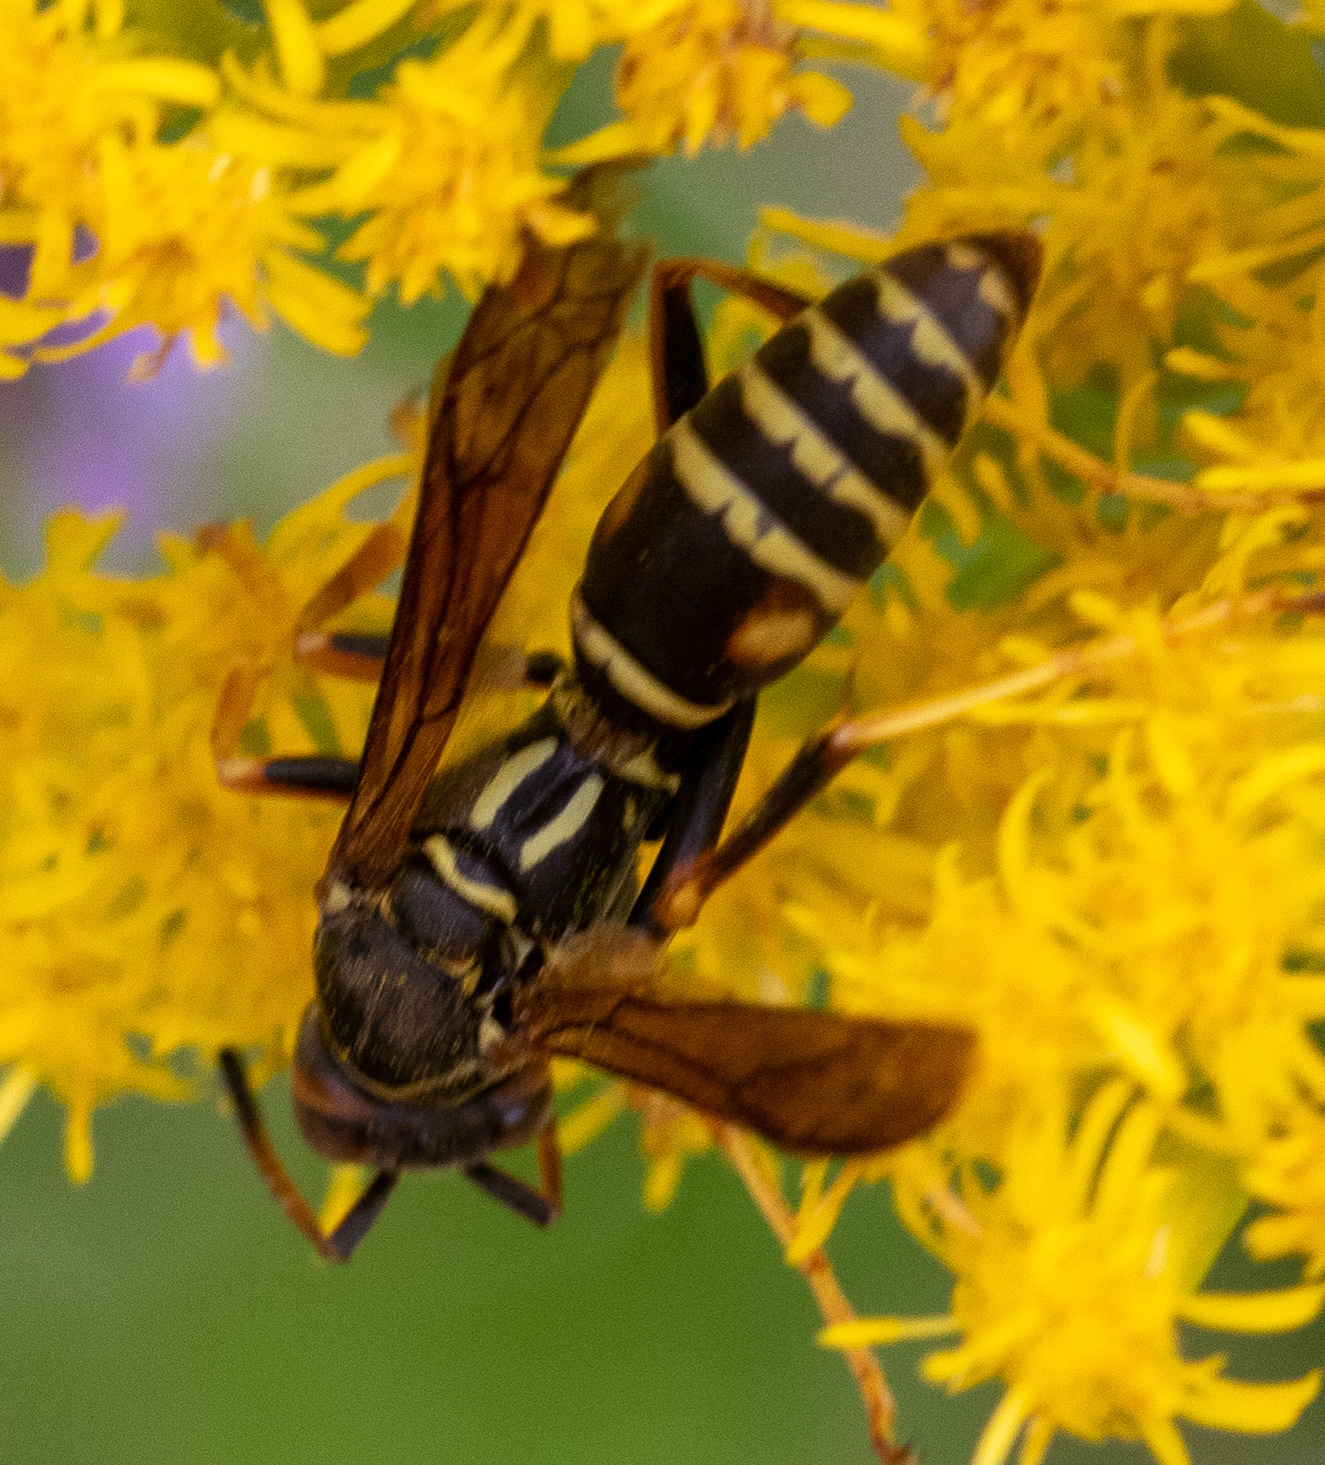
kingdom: Animalia
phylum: Arthropoda
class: Insecta
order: Hymenoptera
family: Eumenidae
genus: Polistes
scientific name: Polistes fuscatus
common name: Dark paper wasp
